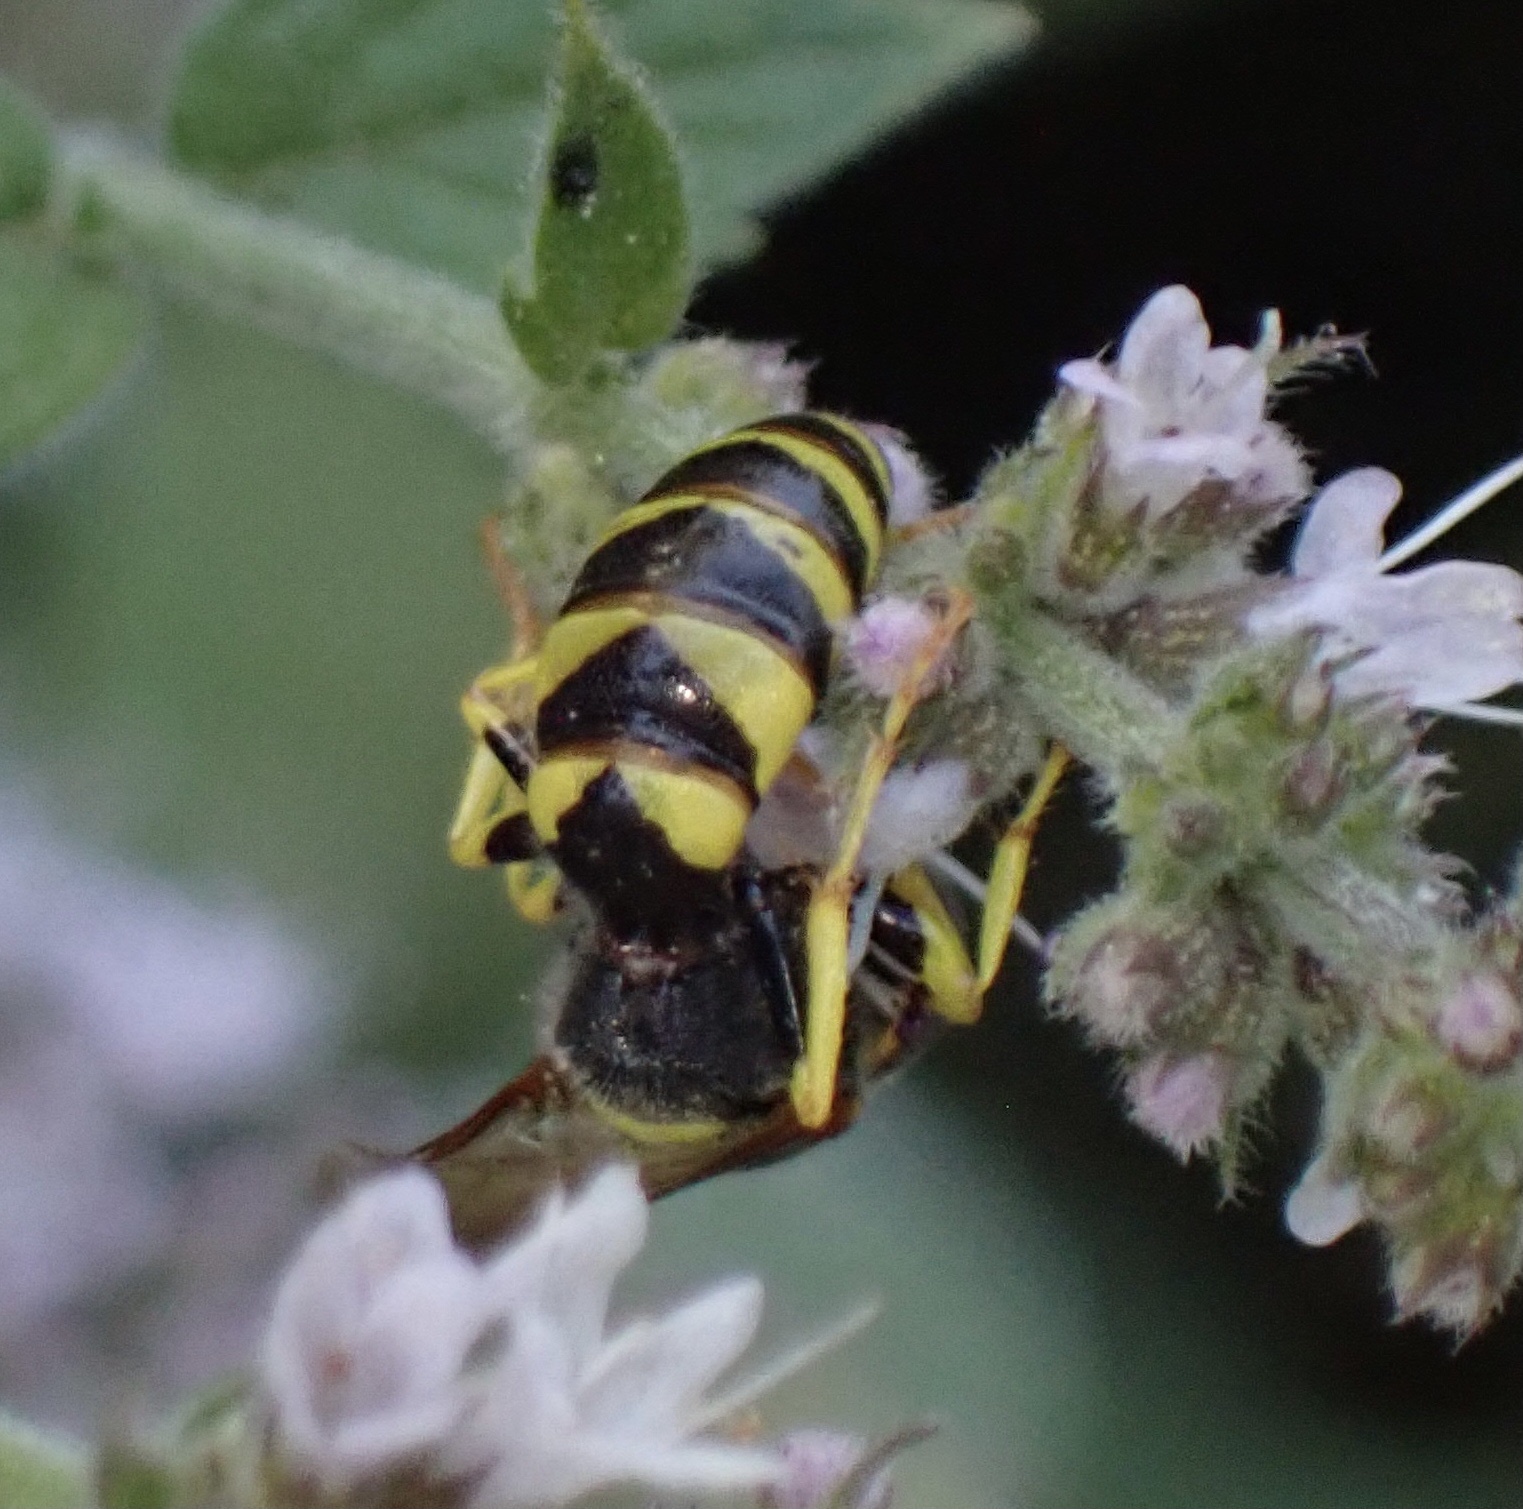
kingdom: Animalia
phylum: Arthropoda
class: Insecta
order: Hymenoptera
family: Crabronidae
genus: Philanthus
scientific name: Philanthus triangulum
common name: Bee wolf
